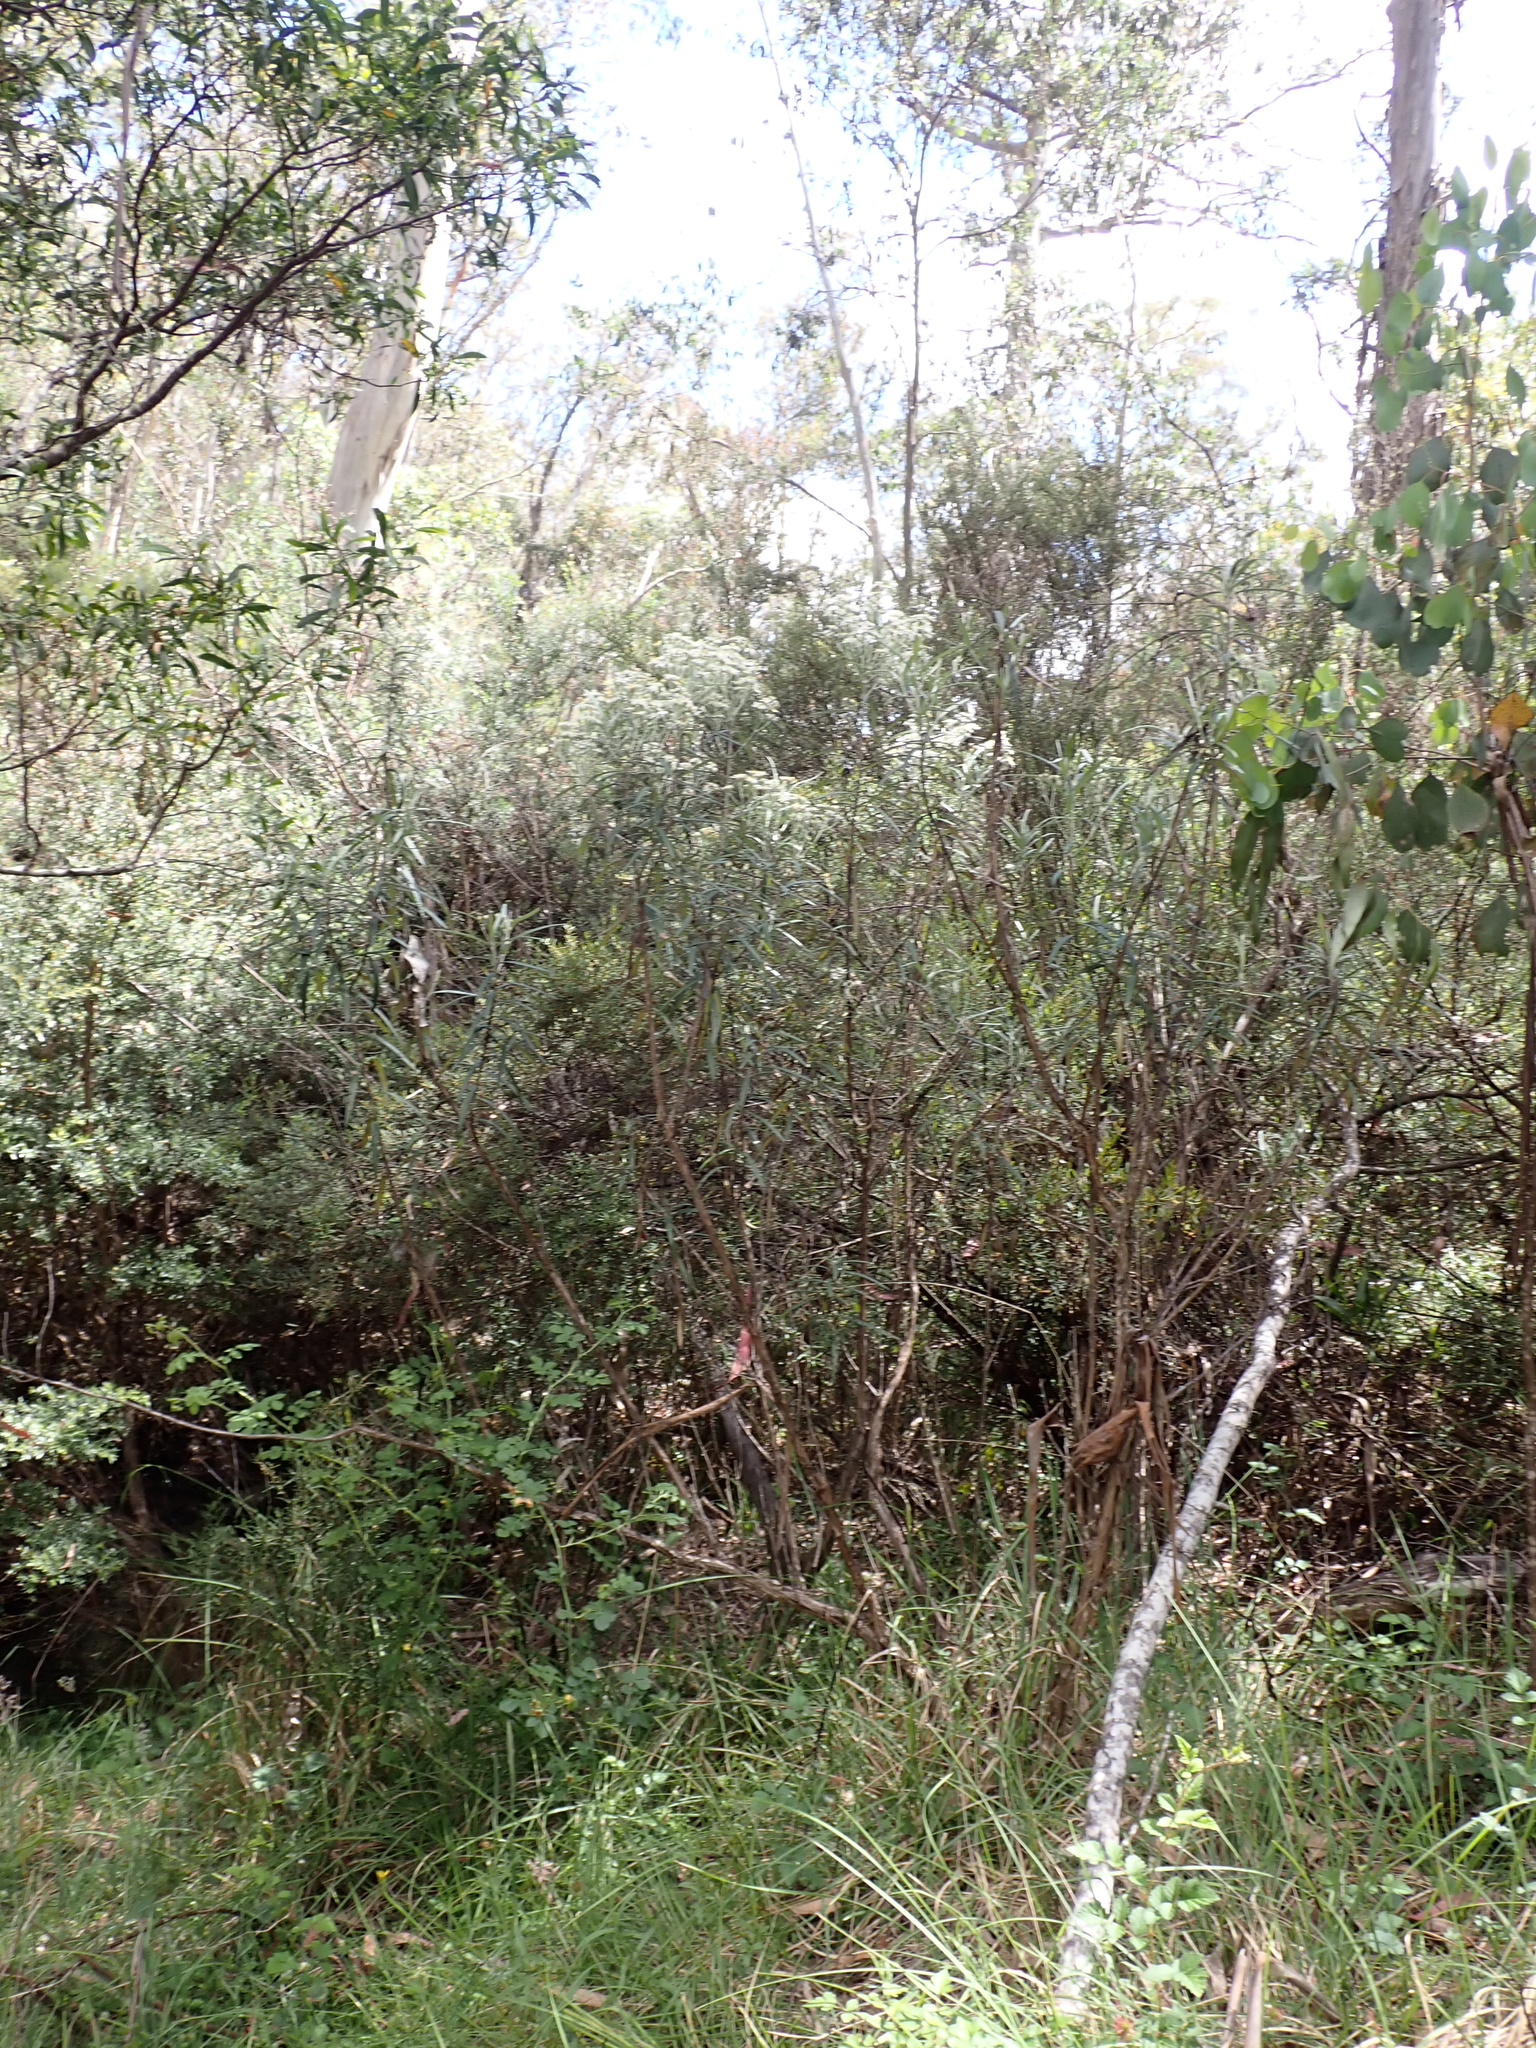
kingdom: Plantae
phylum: Tracheophyta
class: Magnoliopsida
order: Asterales
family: Asteraceae
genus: Olearia
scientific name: Olearia alpicola
